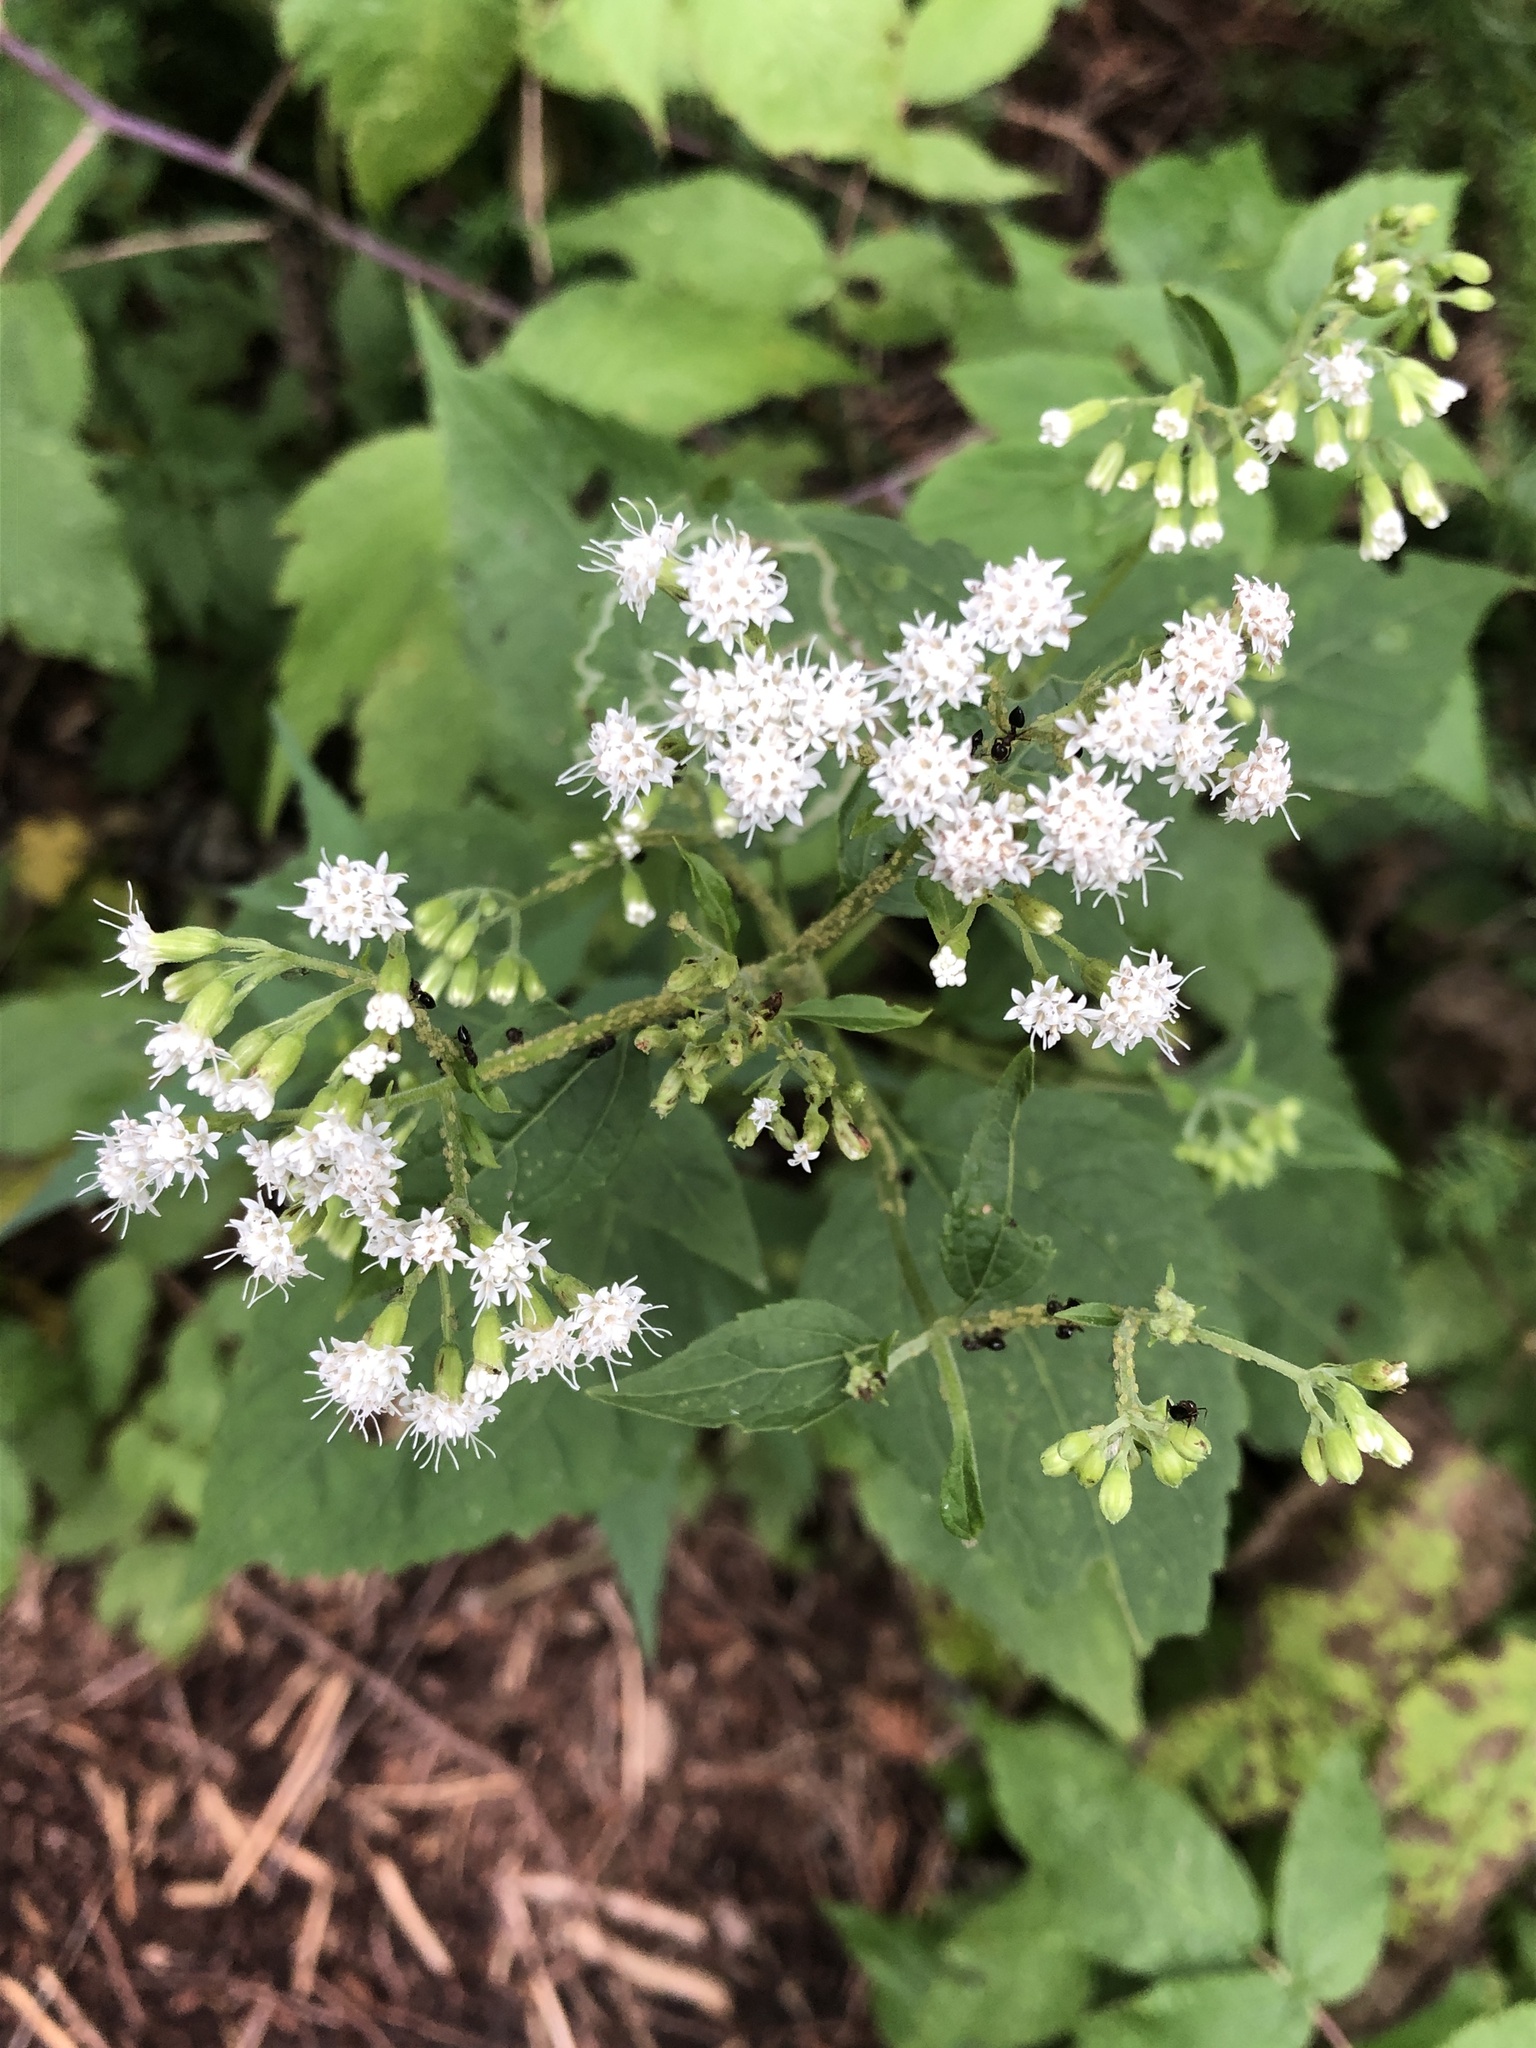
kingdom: Plantae
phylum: Tracheophyta
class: Magnoliopsida
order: Asterales
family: Asteraceae
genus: Ageratina
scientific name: Ageratina altissima
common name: White snakeroot
